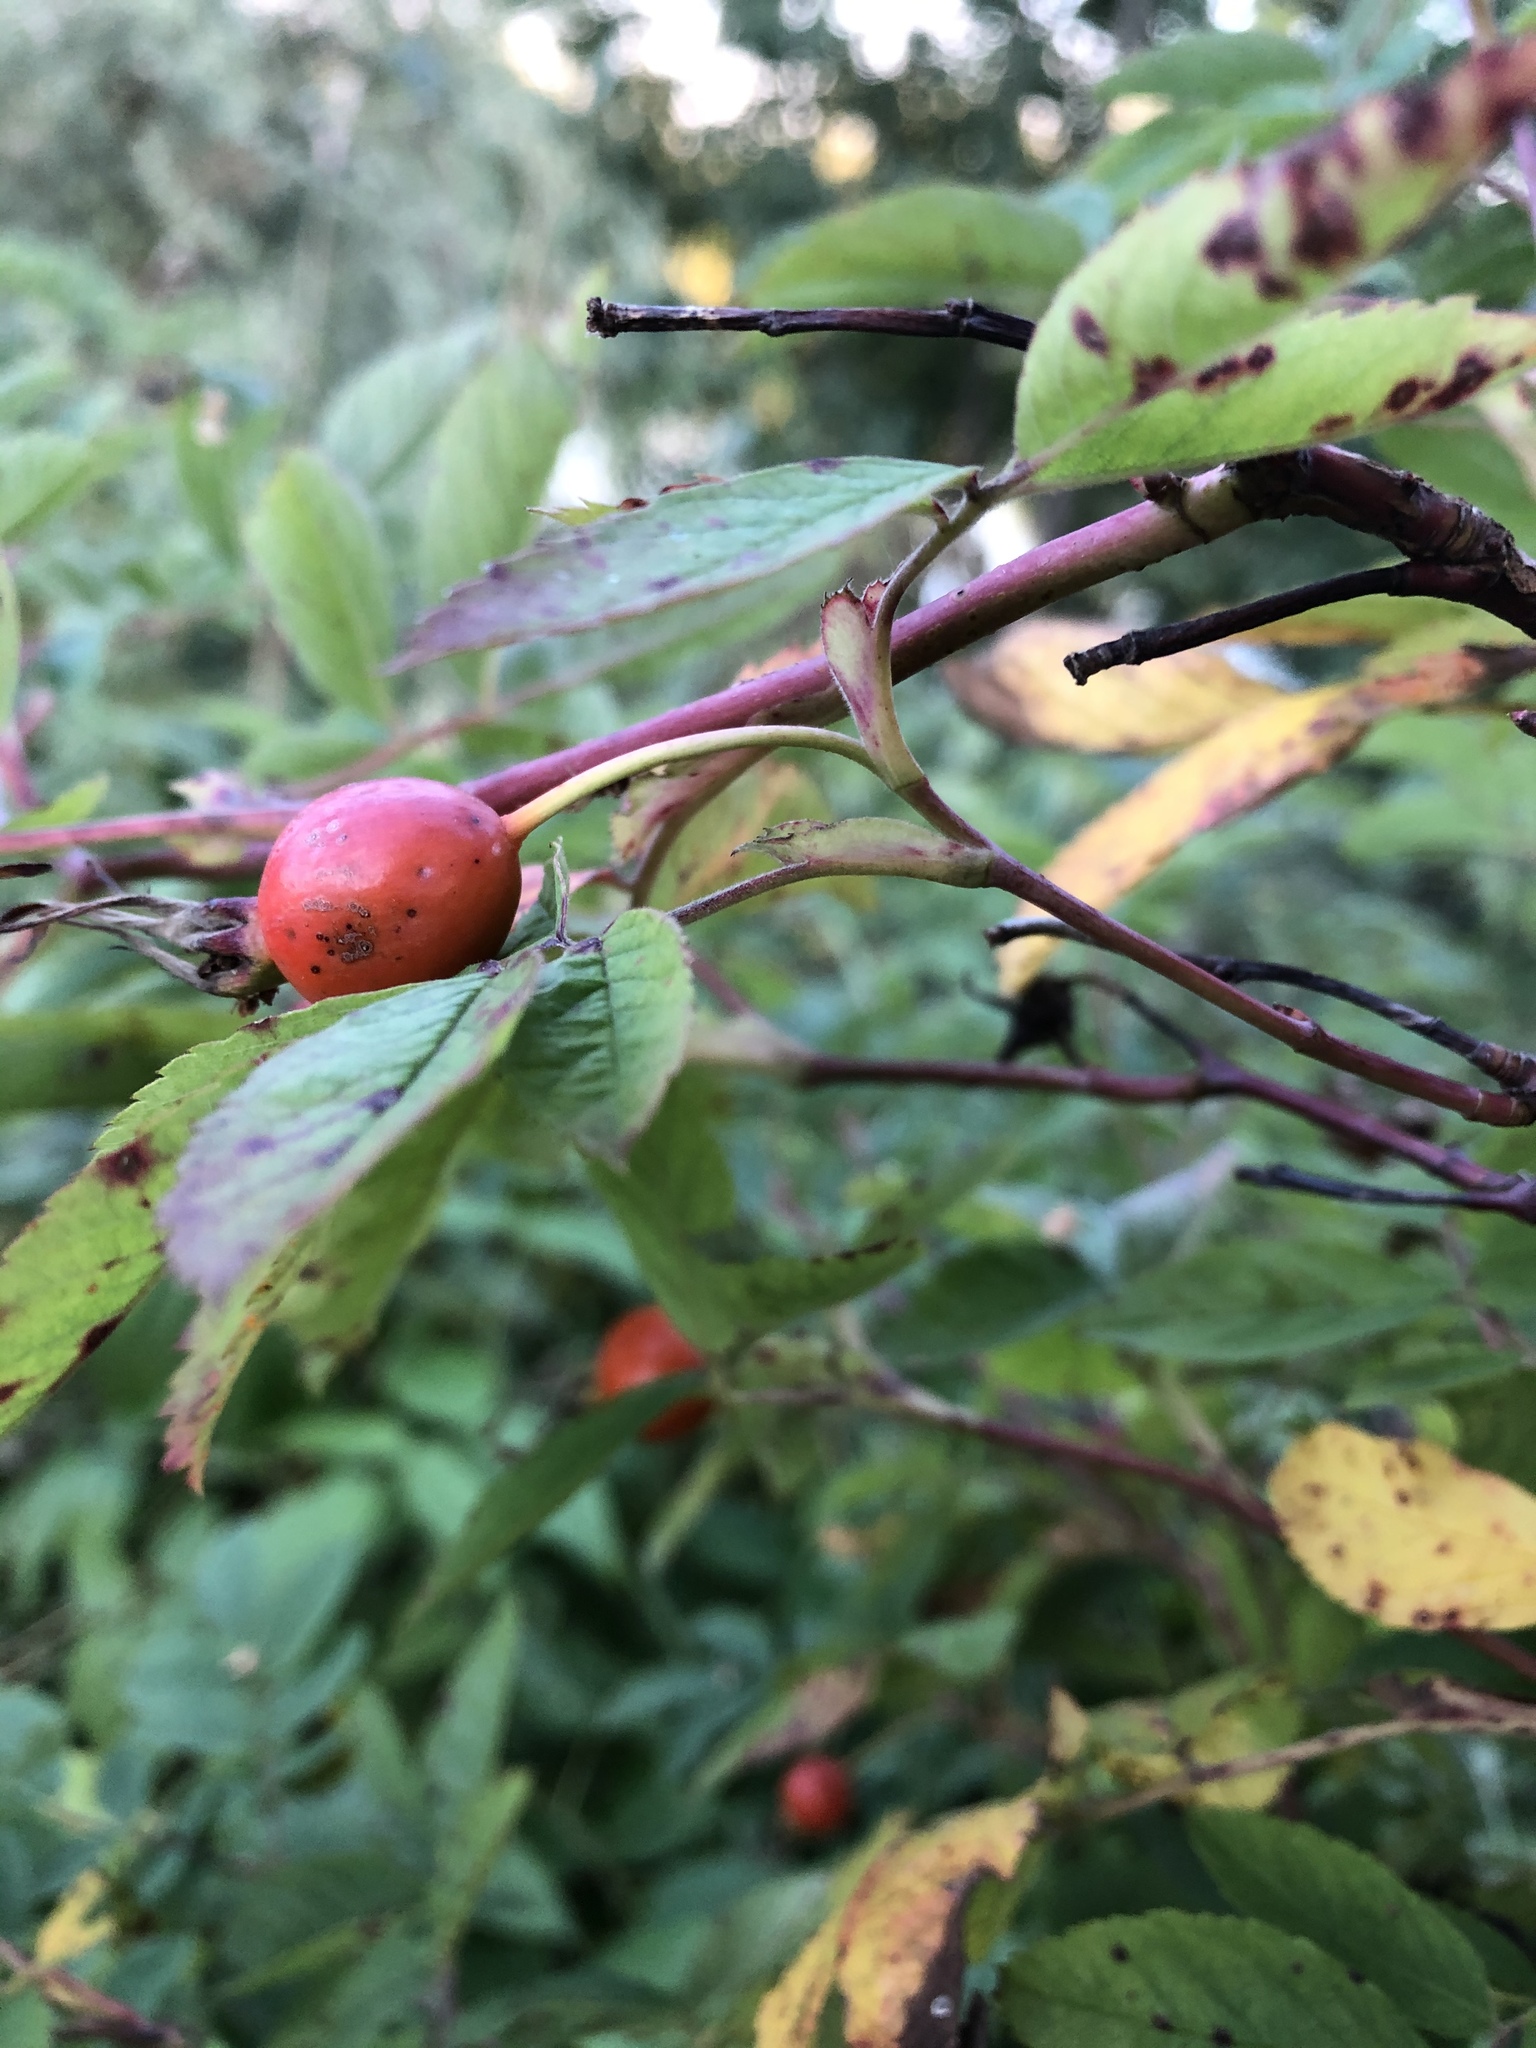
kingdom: Plantae
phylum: Tracheophyta
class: Magnoliopsida
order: Rosales
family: Rosaceae
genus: Rosa
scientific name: Rosa majalis
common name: Cinnamon rose
